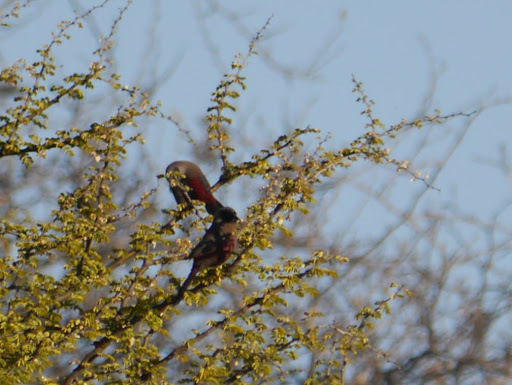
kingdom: Animalia
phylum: Chordata
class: Aves
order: Passeriformes
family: Estrildidae
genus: Estrilda
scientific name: Estrilda erythronotos
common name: Black-faced waxbill
